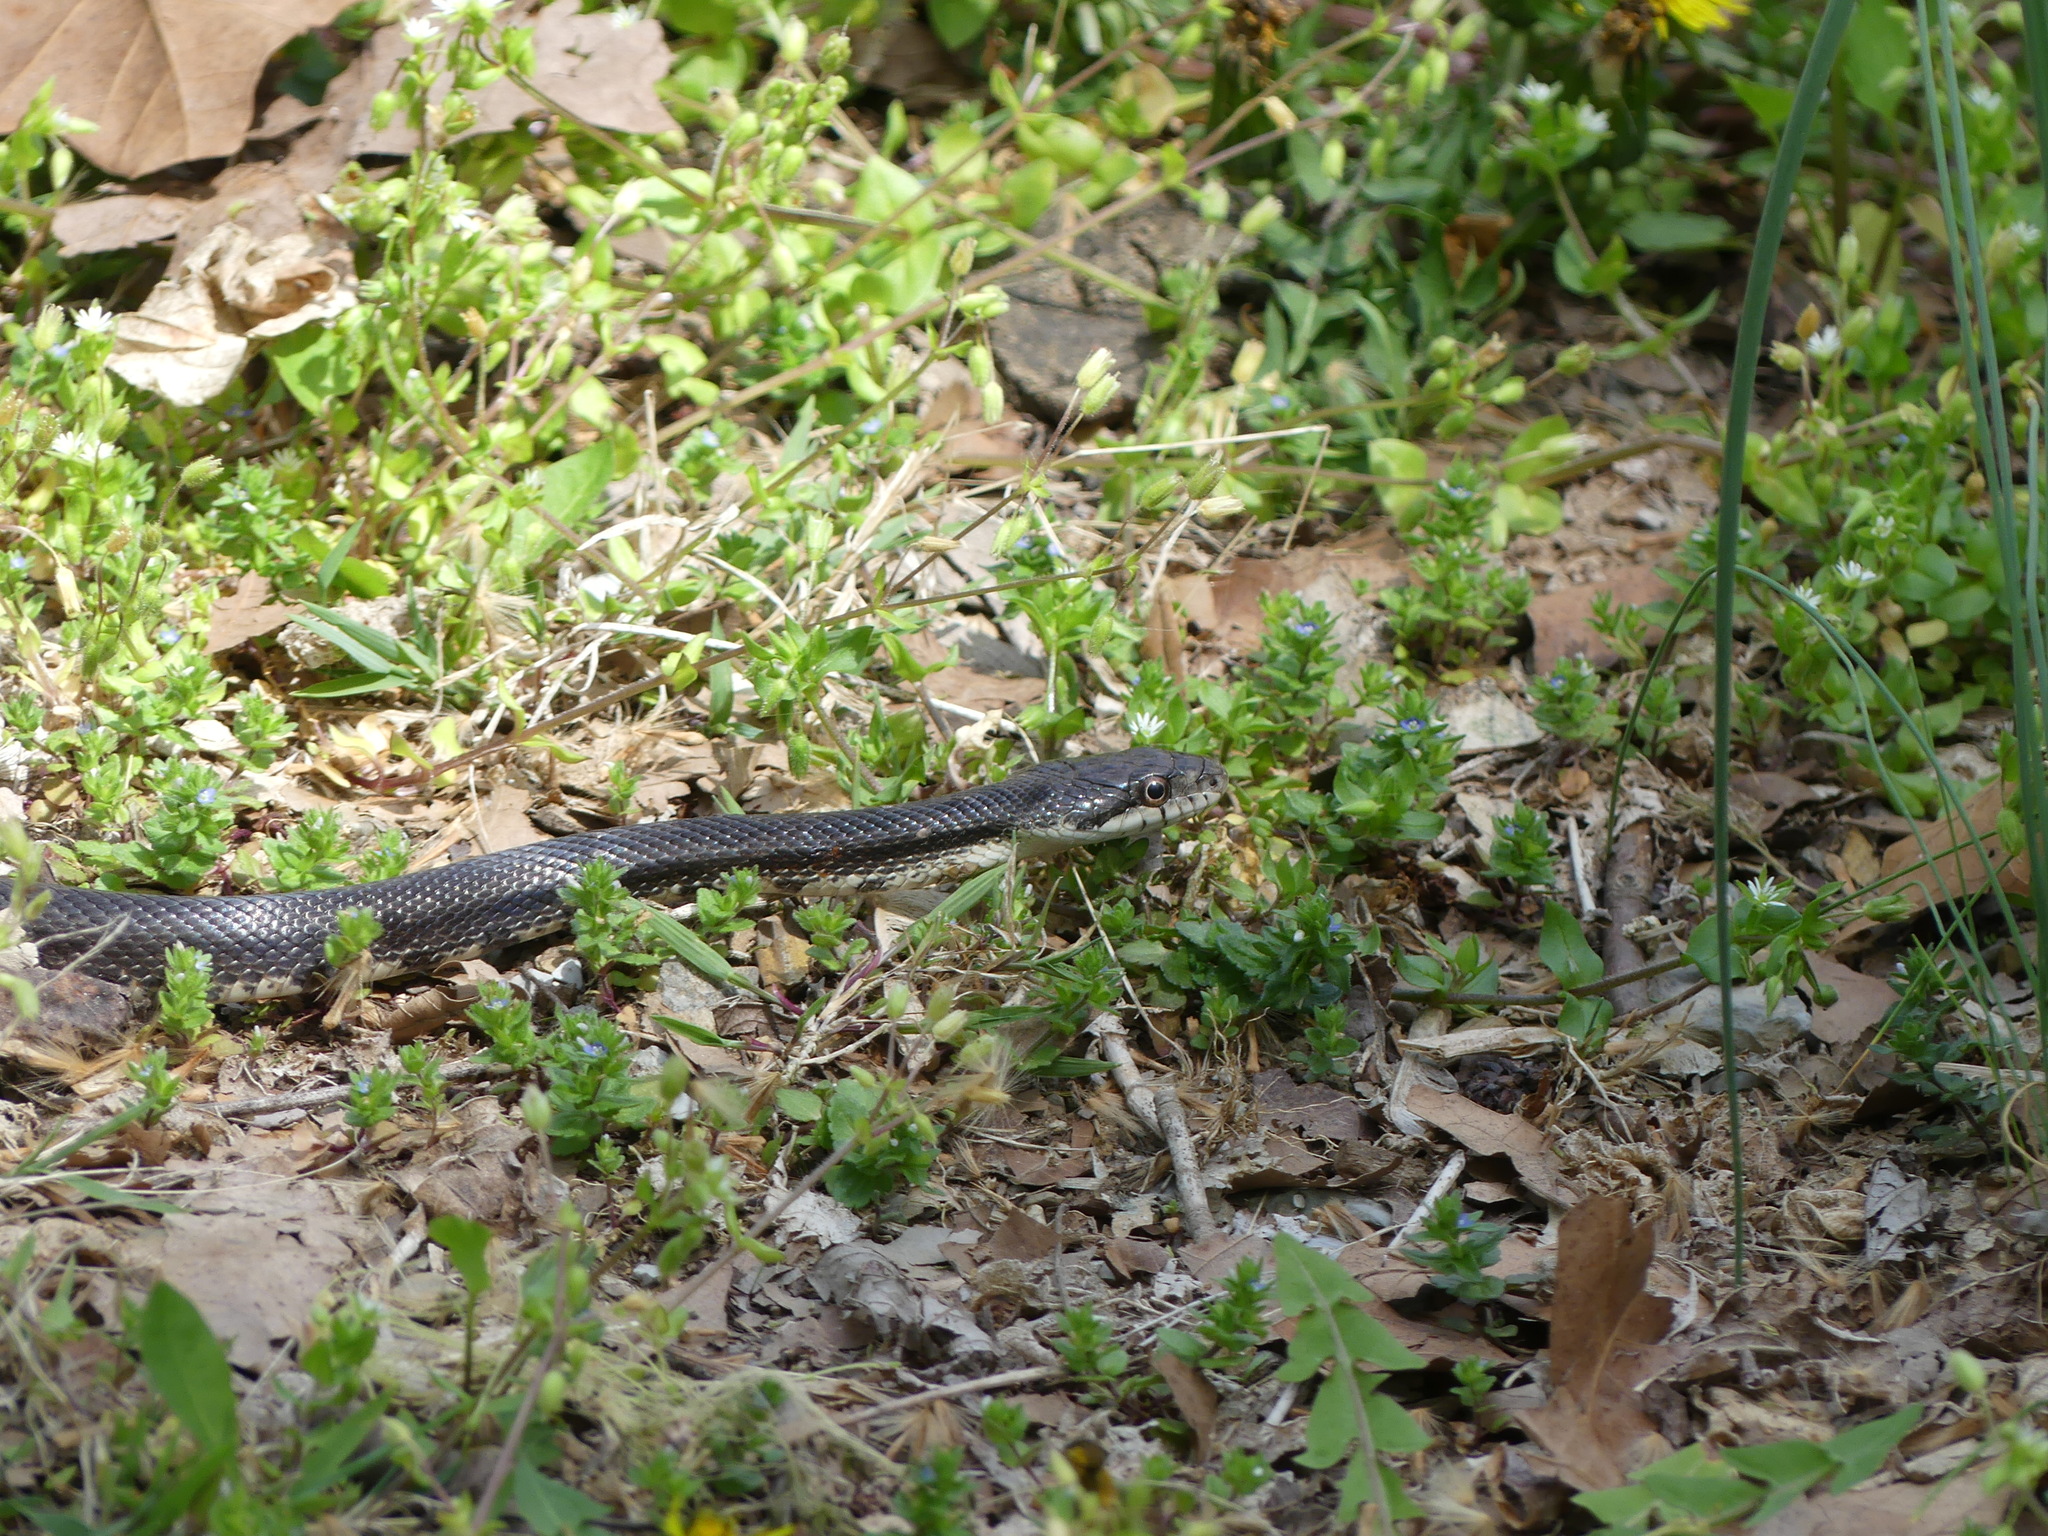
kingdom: Animalia
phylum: Chordata
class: Squamata
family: Colubridae
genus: Pantherophis
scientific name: Pantherophis alleghaniensis
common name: Eastern rat snake
